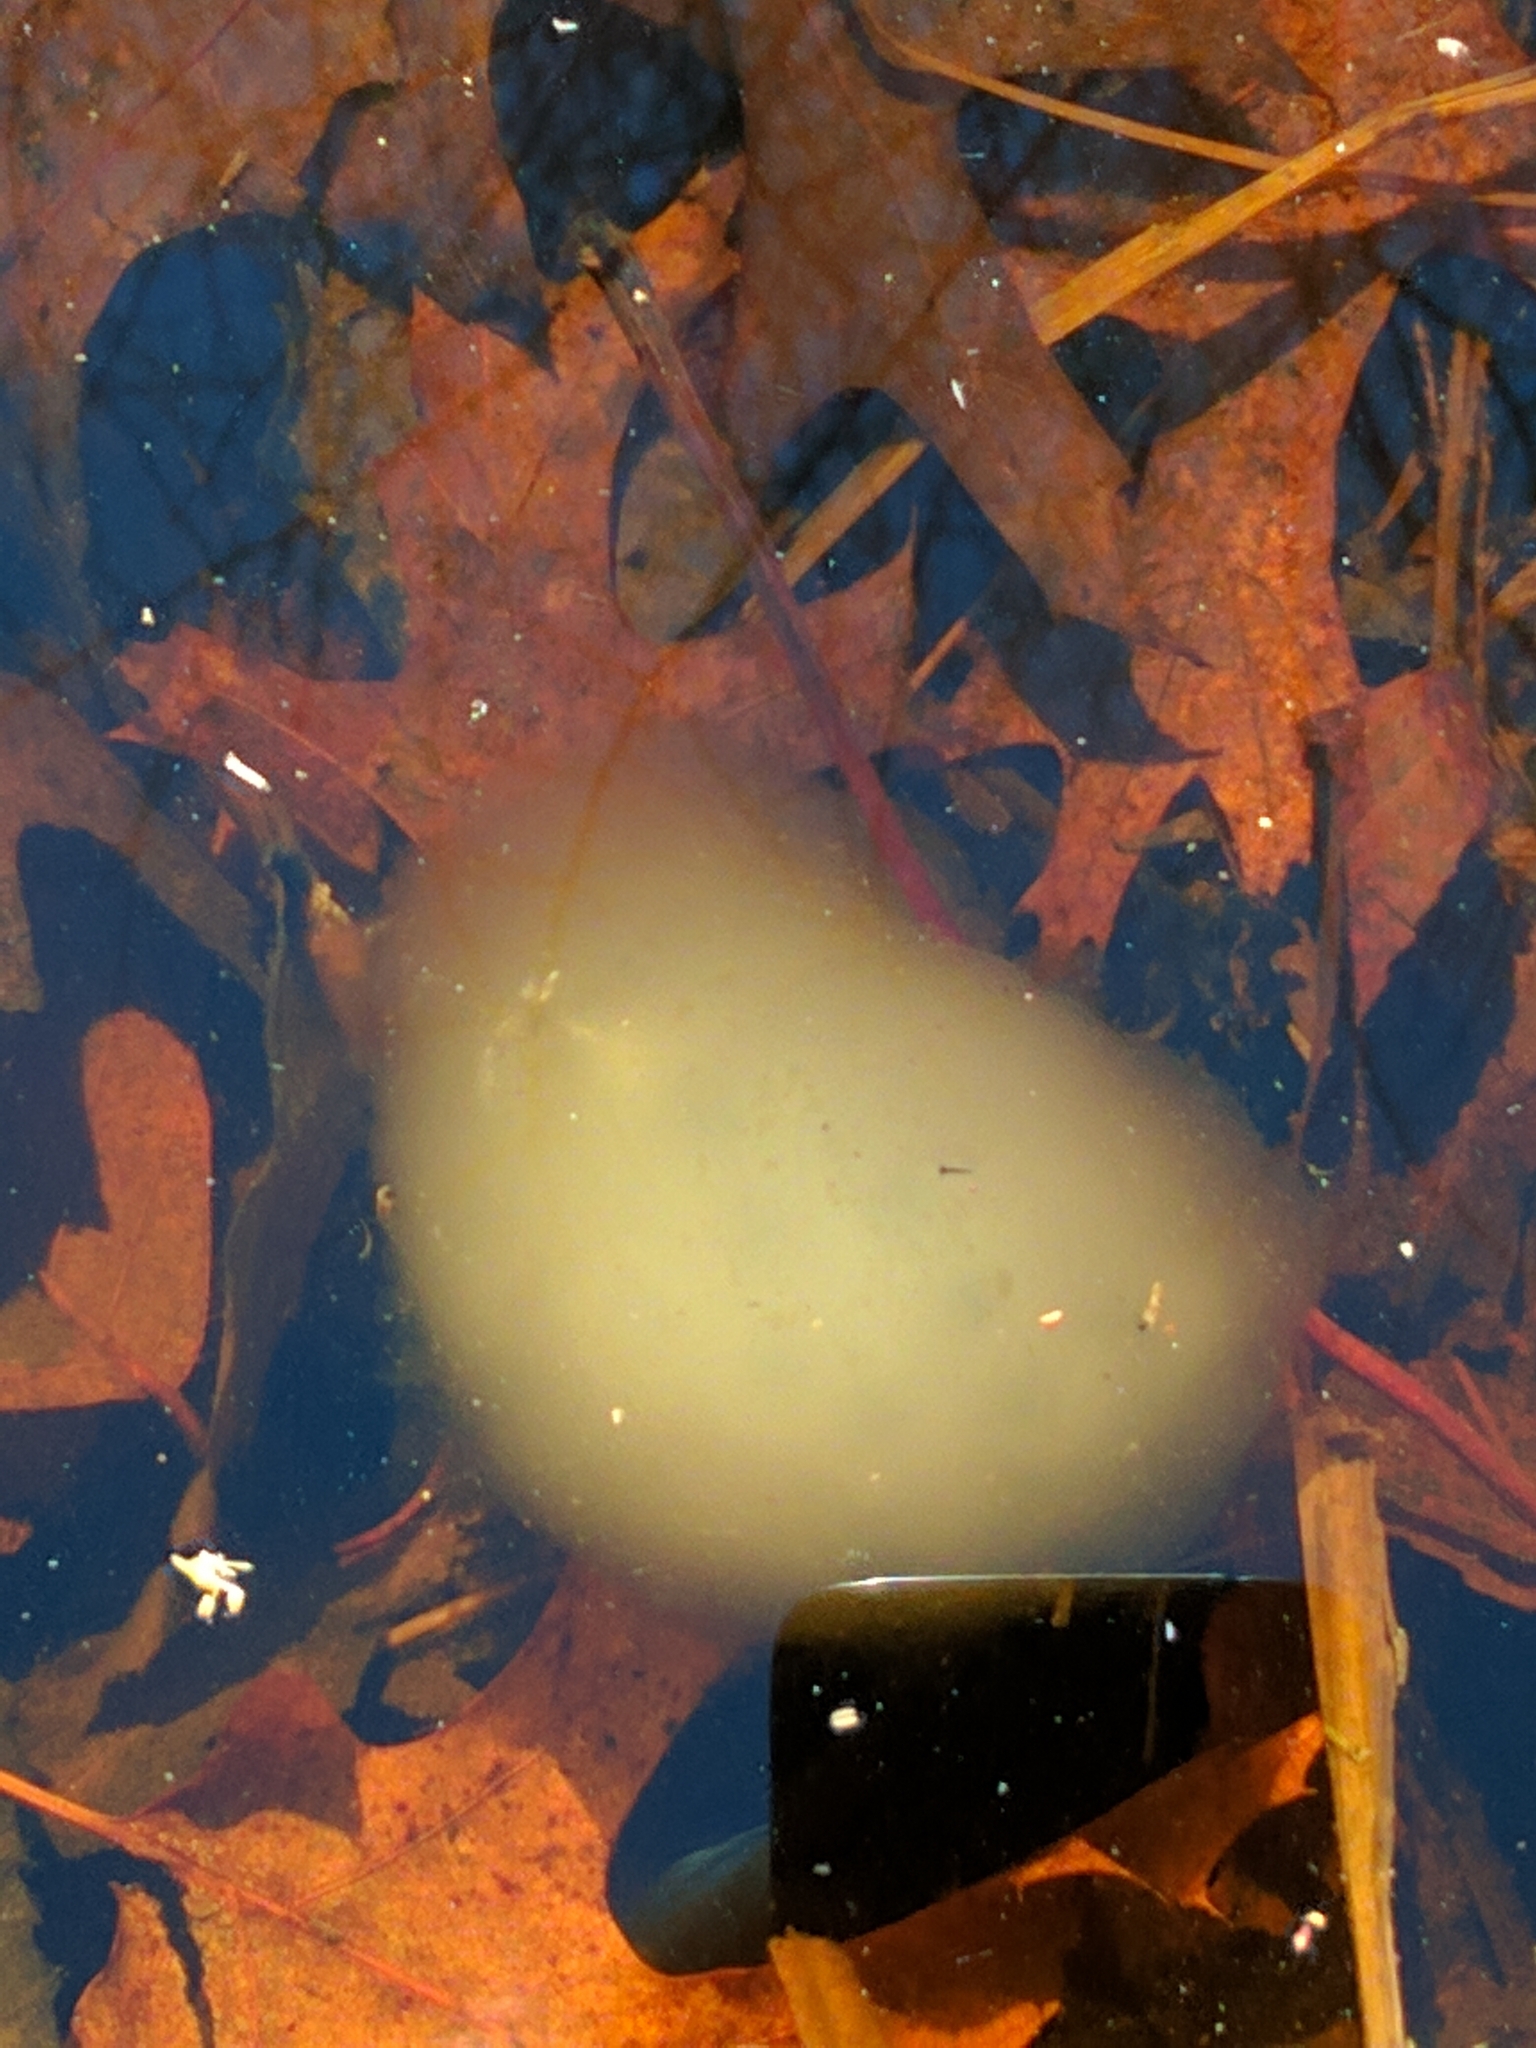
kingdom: Animalia
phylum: Chordata
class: Amphibia
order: Caudata
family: Ambystomatidae
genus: Ambystoma
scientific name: Ambystoma maculatum
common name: Spotted salamander
